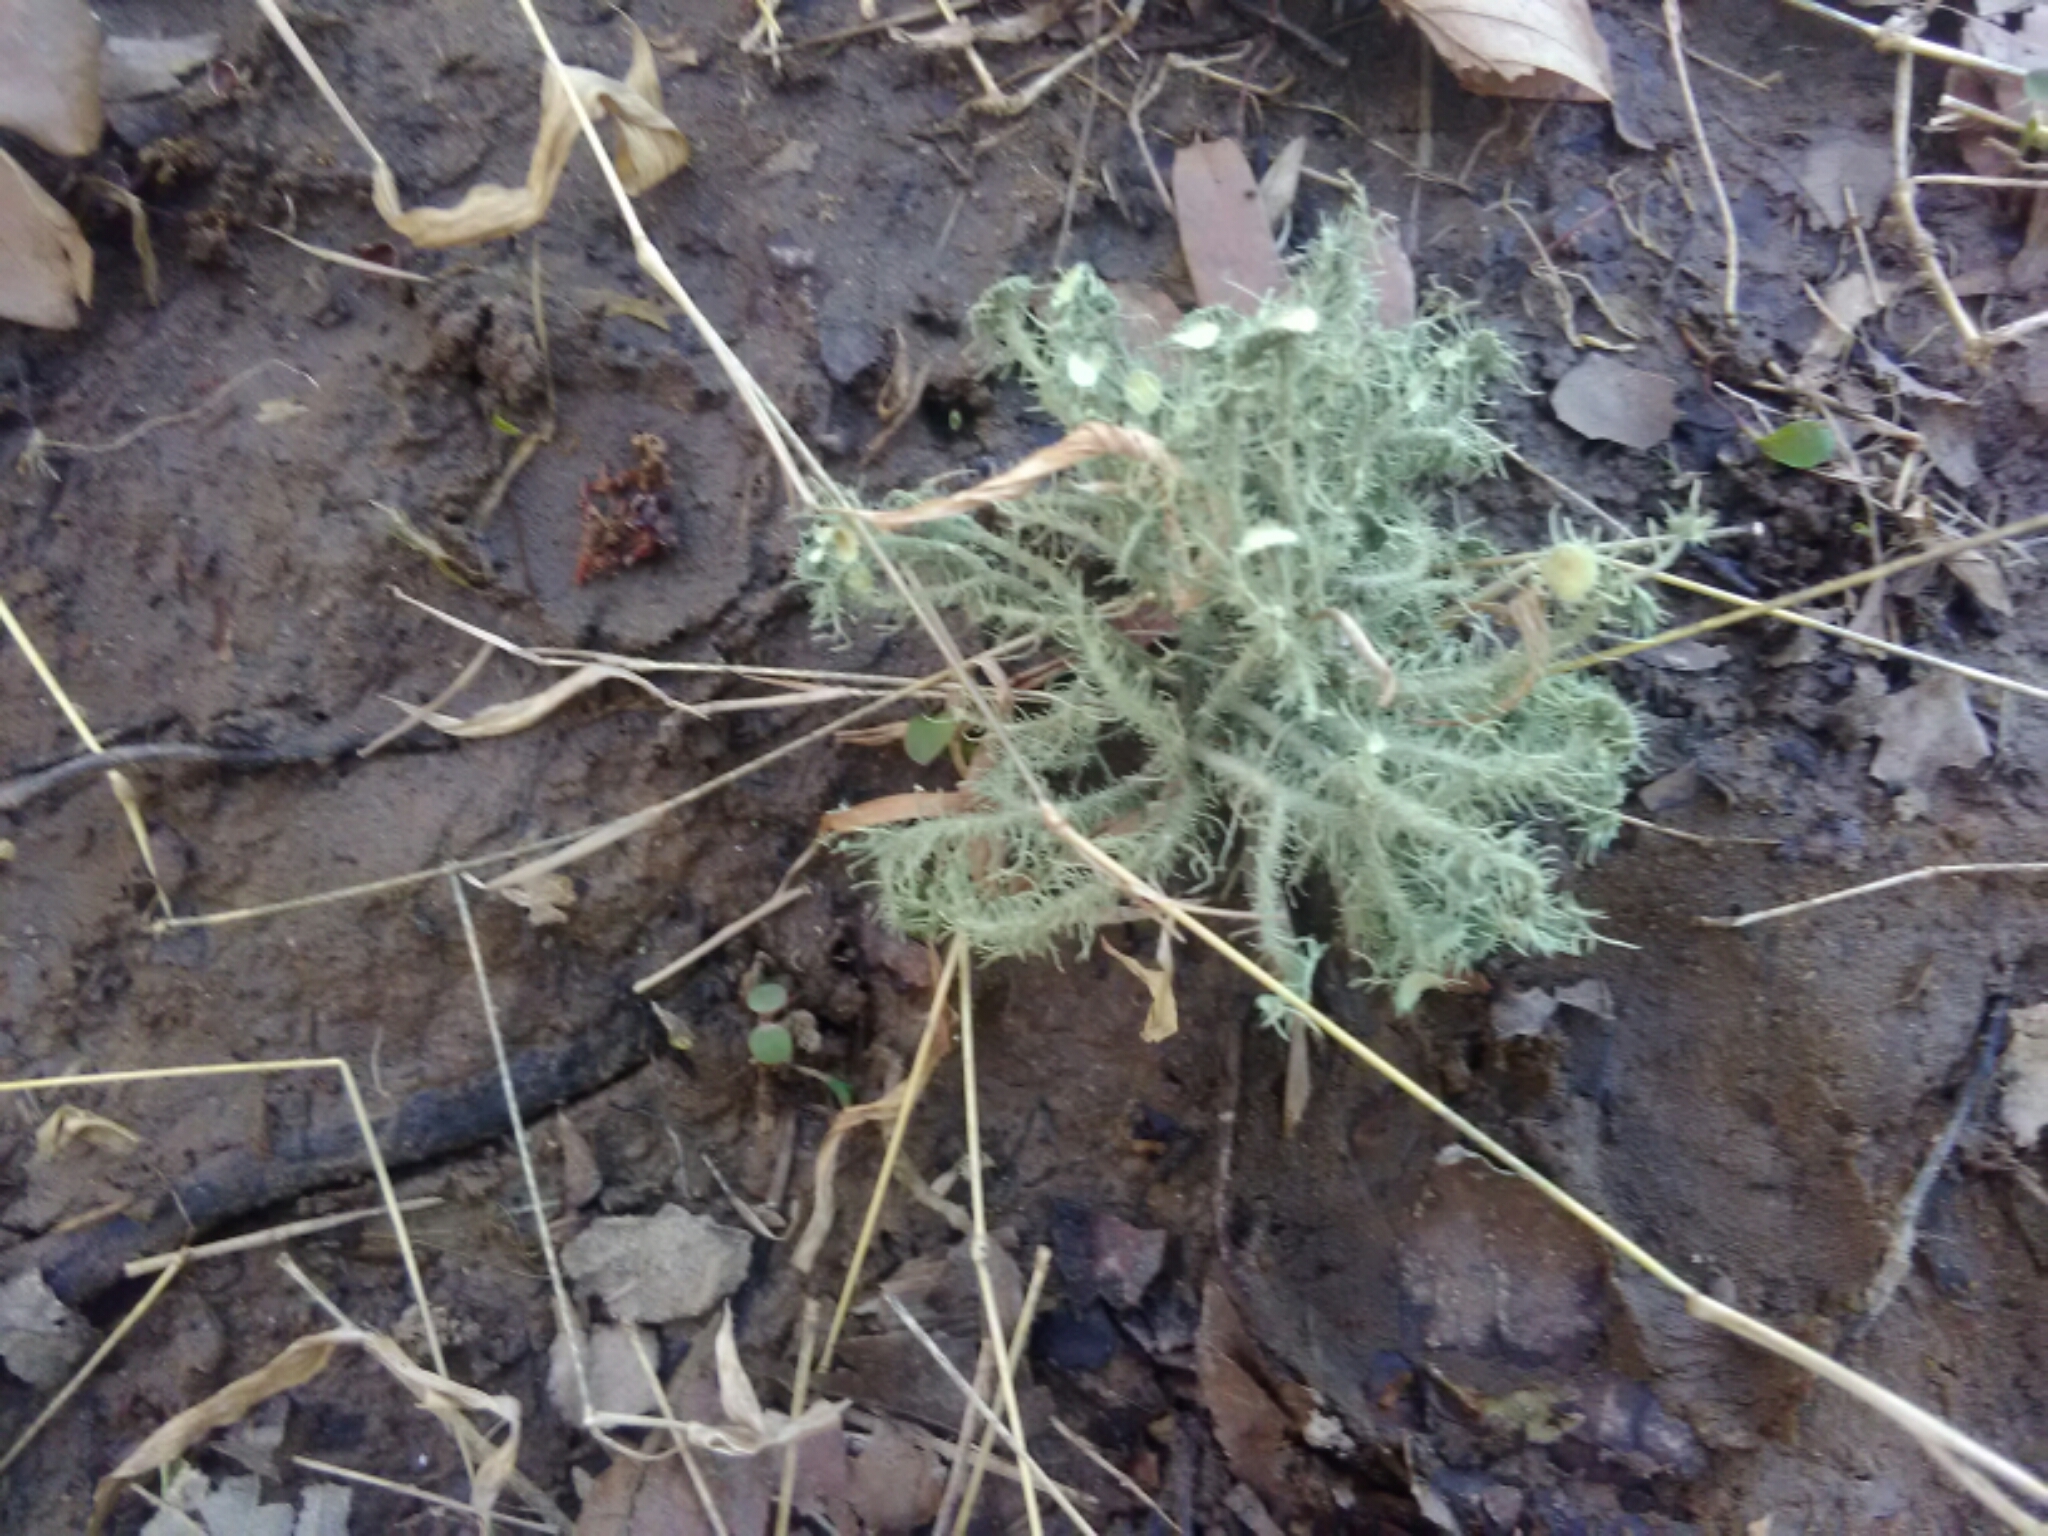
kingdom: Fungi
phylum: Ascomycota
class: Lecanoromycetes
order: Lecanorales
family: Parmeliaceae
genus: Usnea
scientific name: Usnea strigosa
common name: Bushy beard lichen
